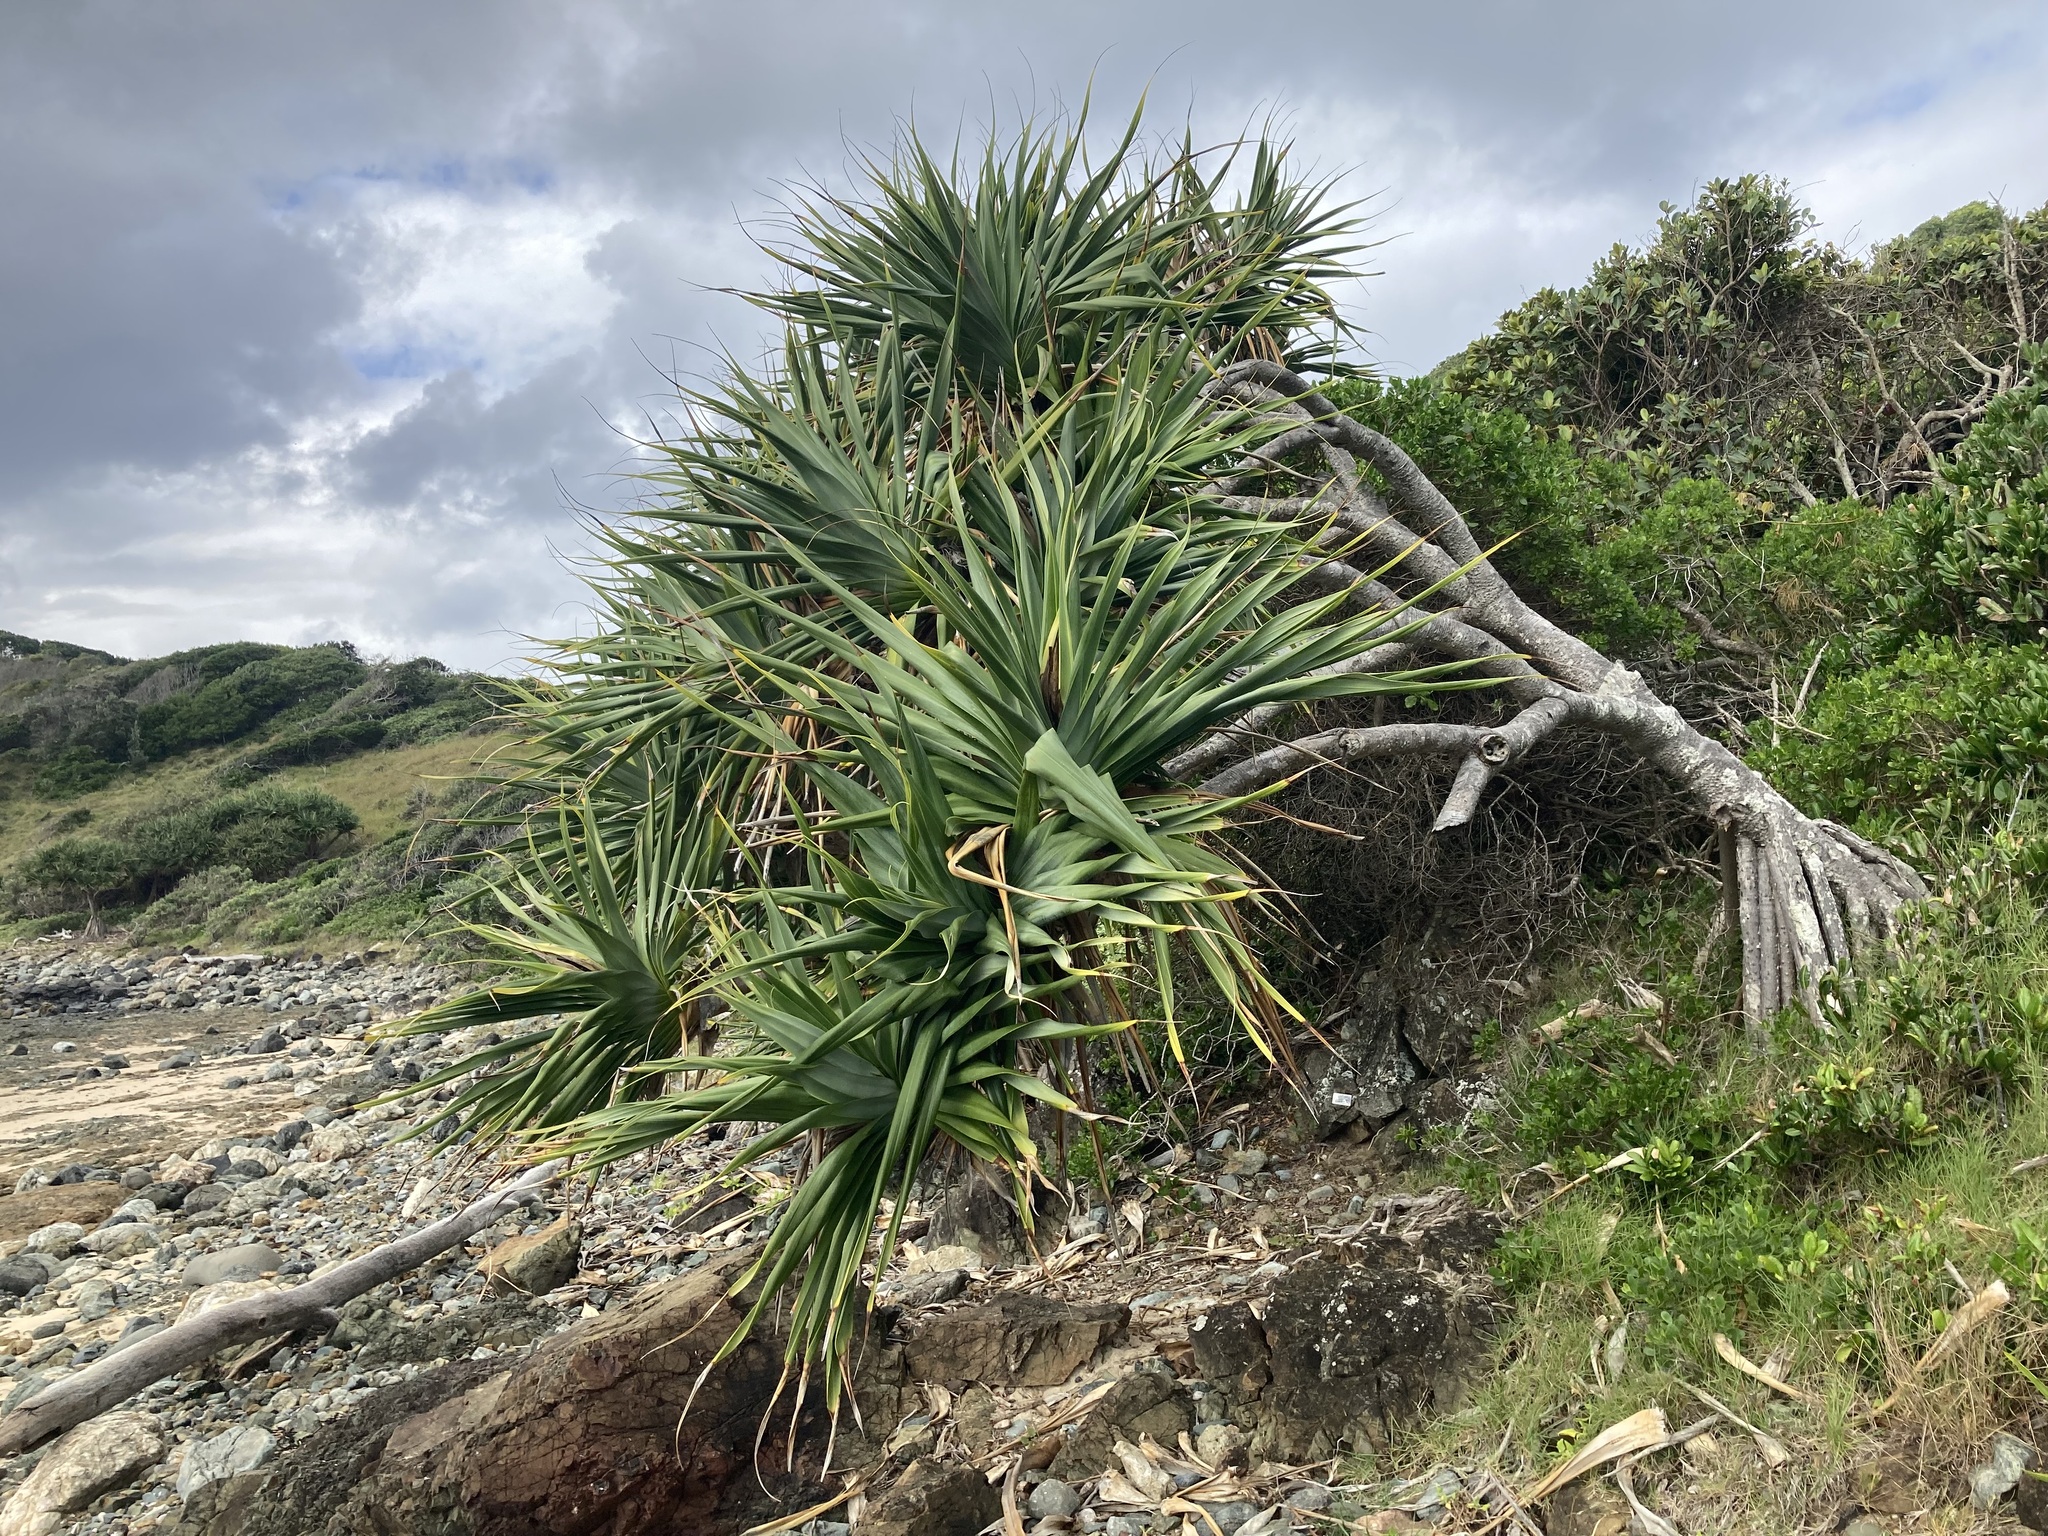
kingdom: Plantae
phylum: Tracheophyta
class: Liliopsida
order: Pandanales
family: Pandanaceae
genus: Pandanus
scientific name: Pandanus tectorius
